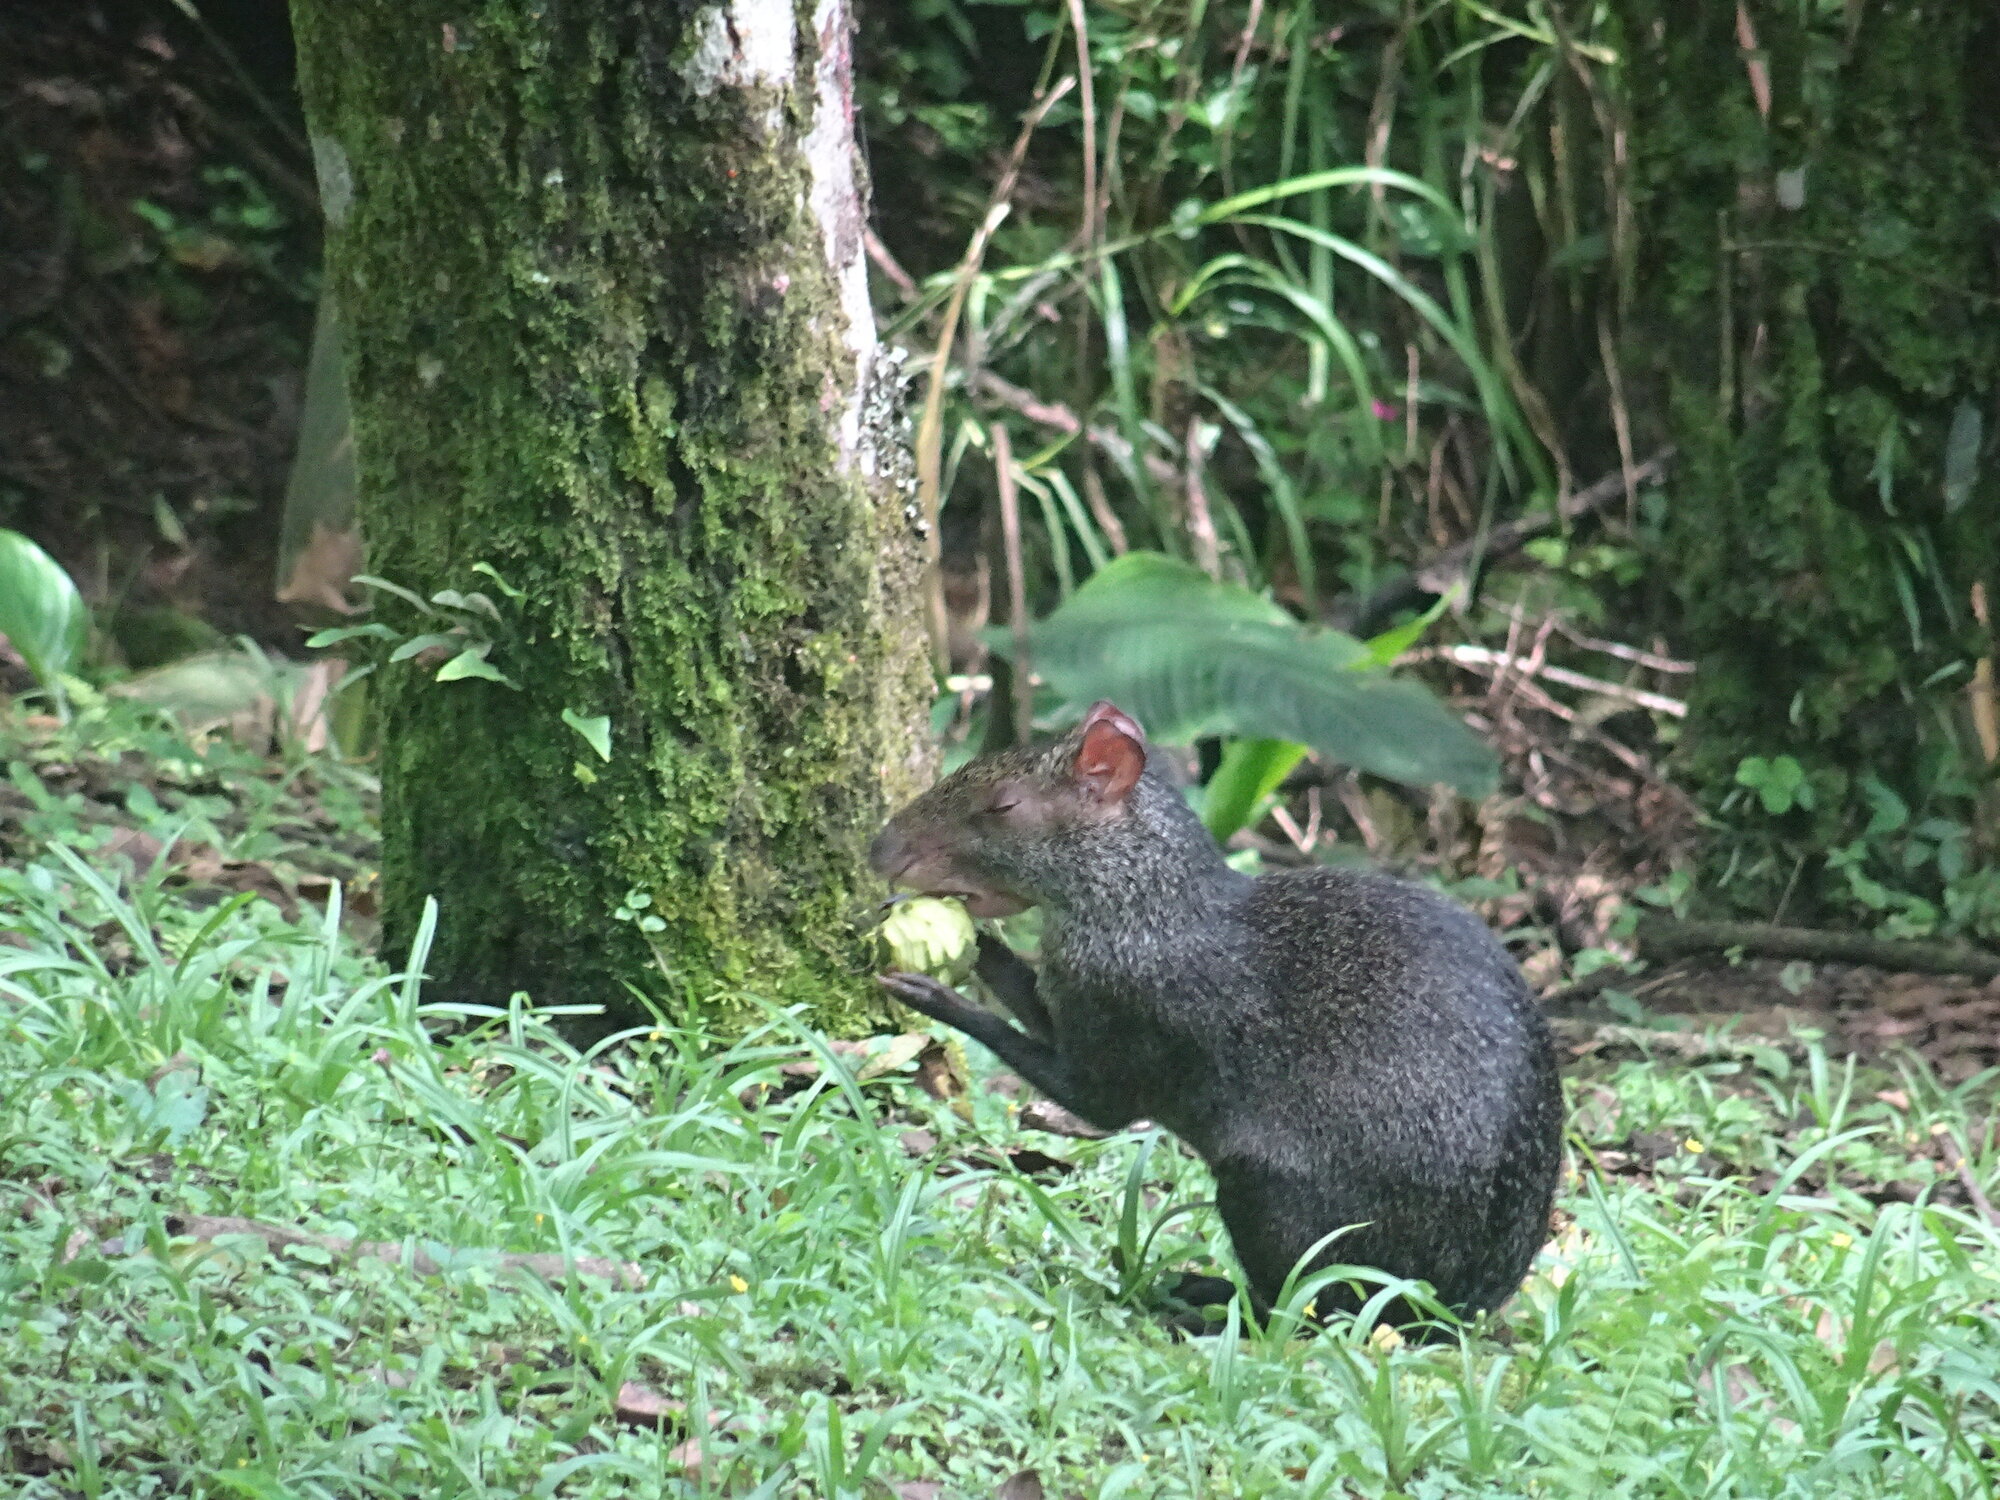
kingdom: Animalia
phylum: Chordata
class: Mammalia
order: Rodentia
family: Dasyproctidae
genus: Dasyprocta
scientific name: Dasyprocta punctata
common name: Central american agouti
